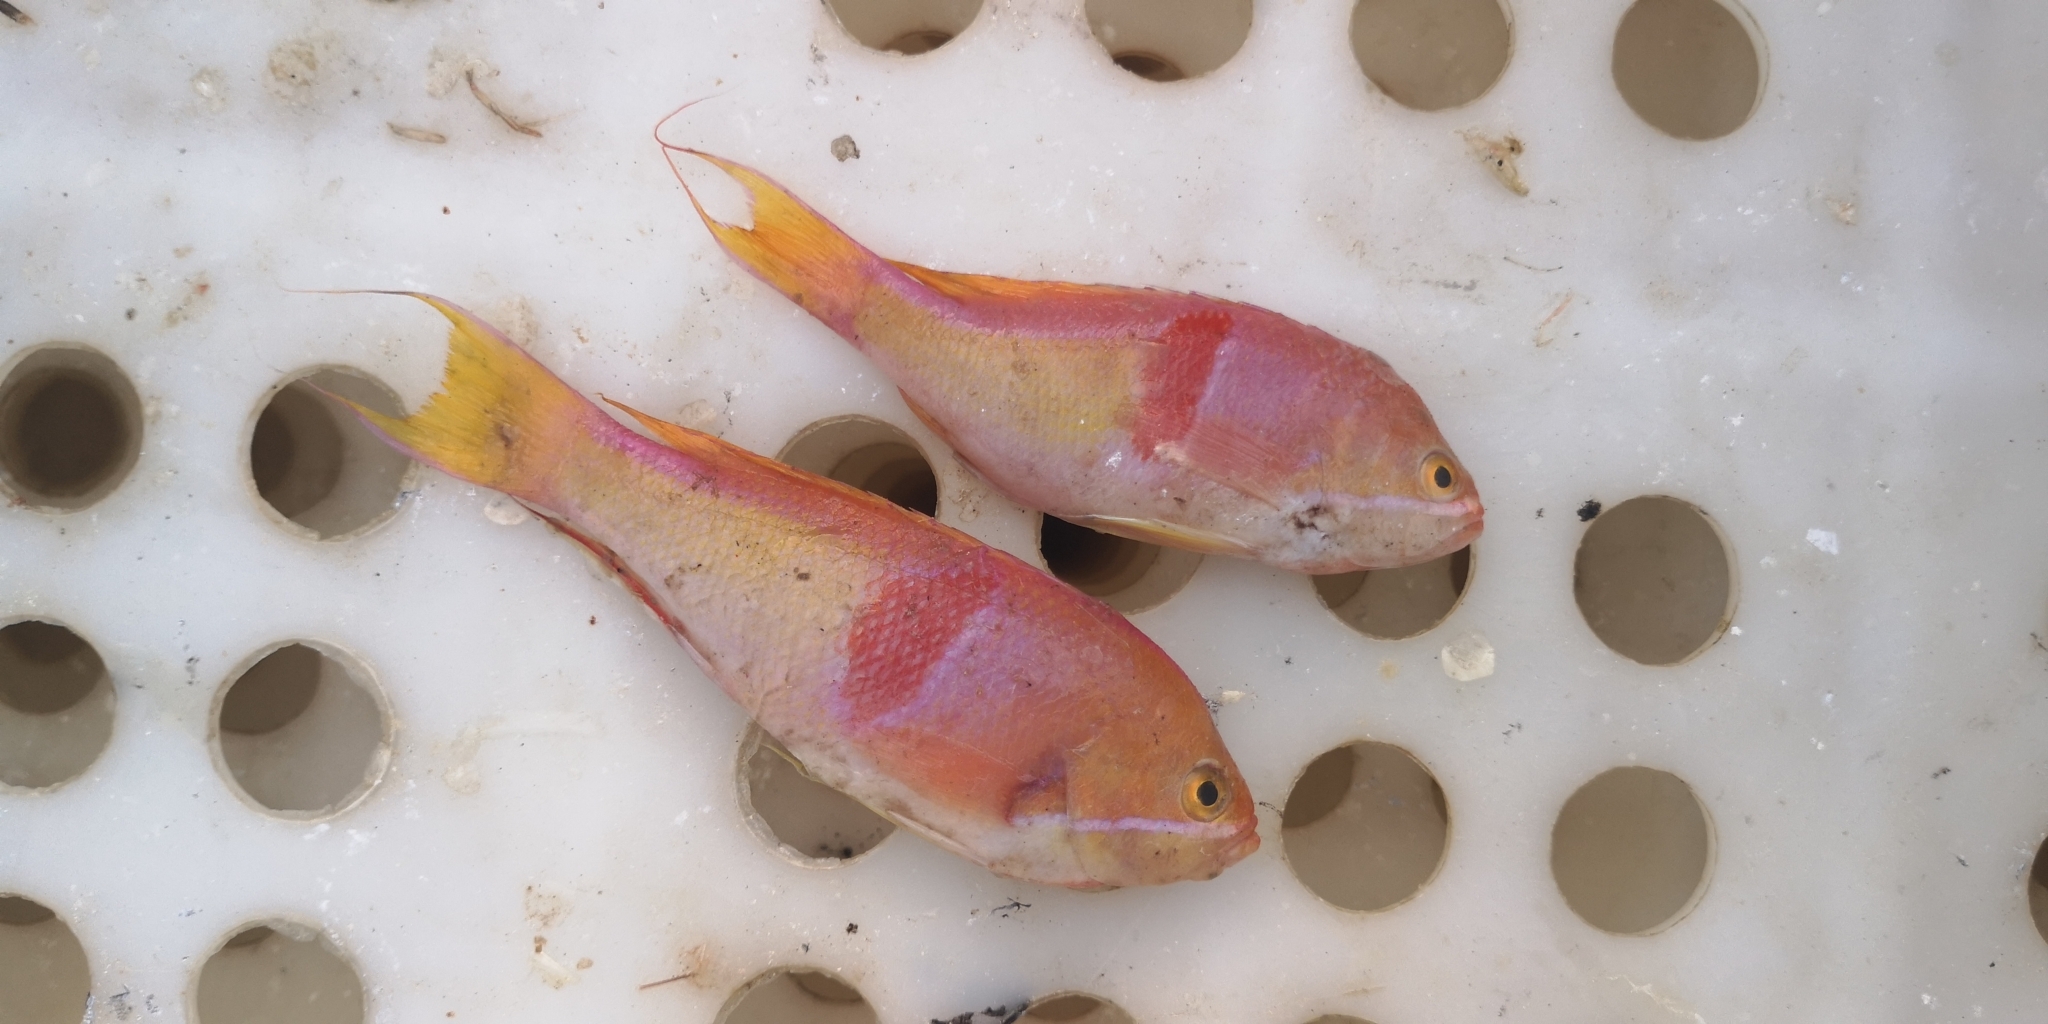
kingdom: Animalia
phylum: Chordata
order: Perciformes
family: Serranidae
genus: Pseudanthias
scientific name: Pseudanthias rubrizonatus
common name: Deepsea fairy basslet
